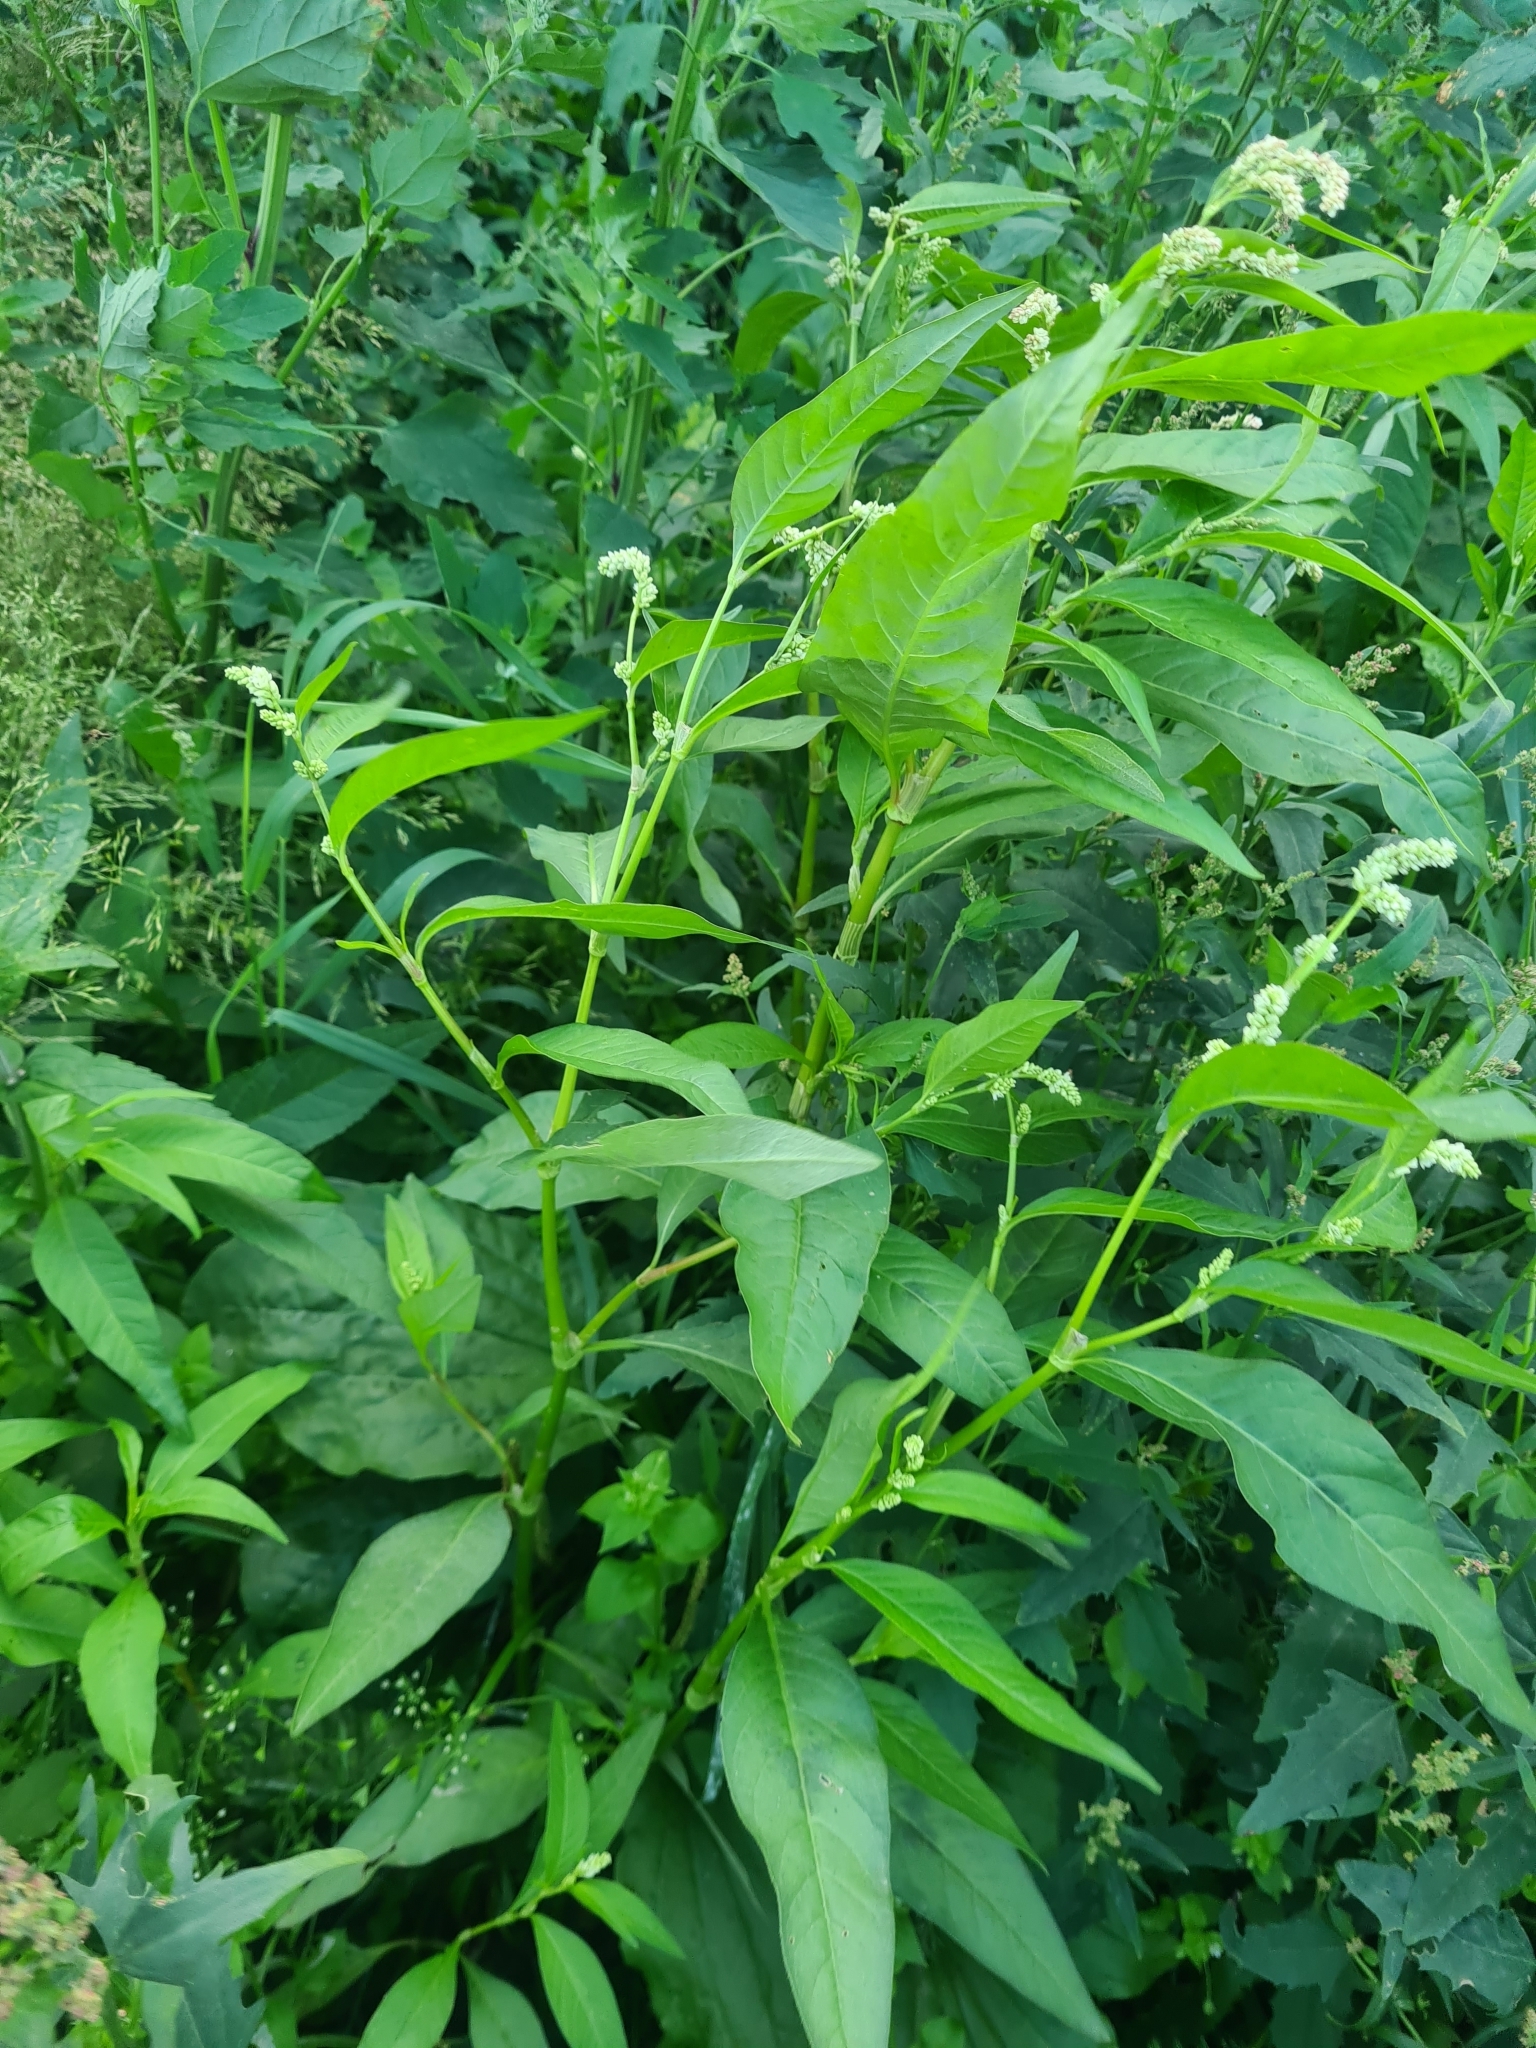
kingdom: Plantae
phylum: Tracheophyta
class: Magnoliopsida
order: Caryophyllales
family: Polygonaceae
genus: Persicaria
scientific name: Persicaria lapathifolia
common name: Curlytop knotweed
